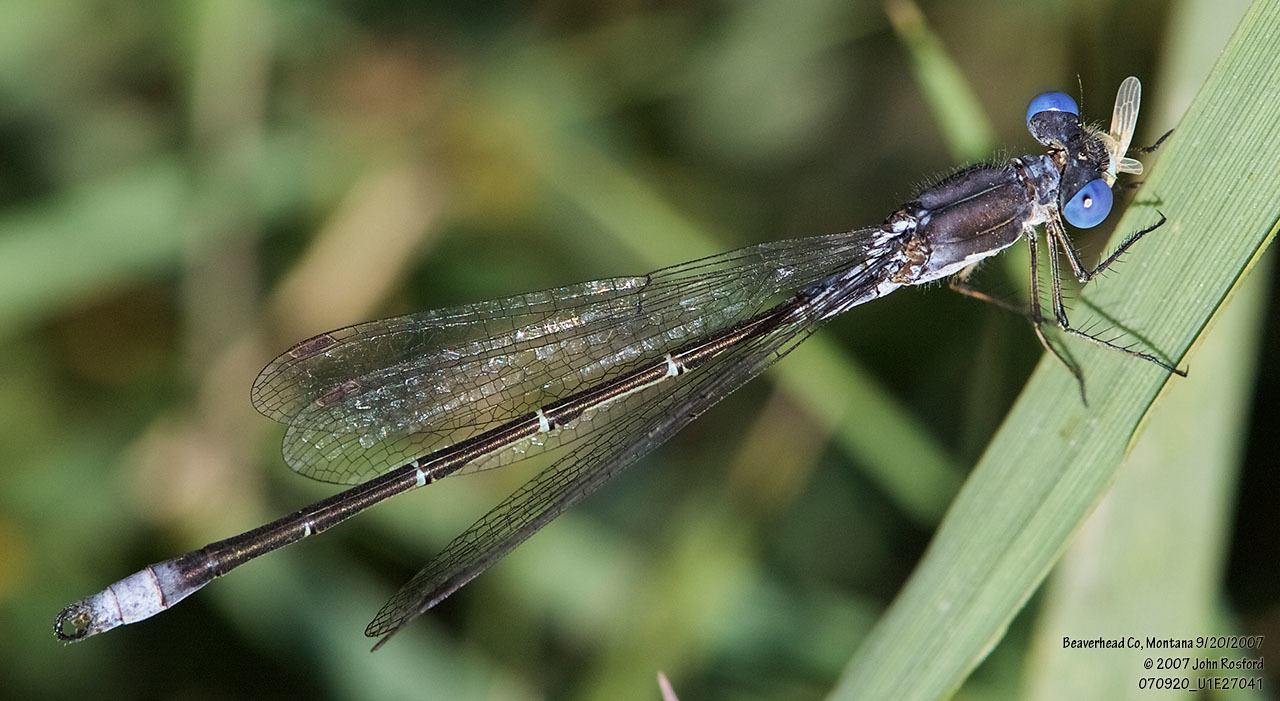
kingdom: Animalia
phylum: Arthropoda
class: Insecta
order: Odonata
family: Lestidae
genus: Lestes
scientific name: Lestes congener
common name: Spotted spreadwing
